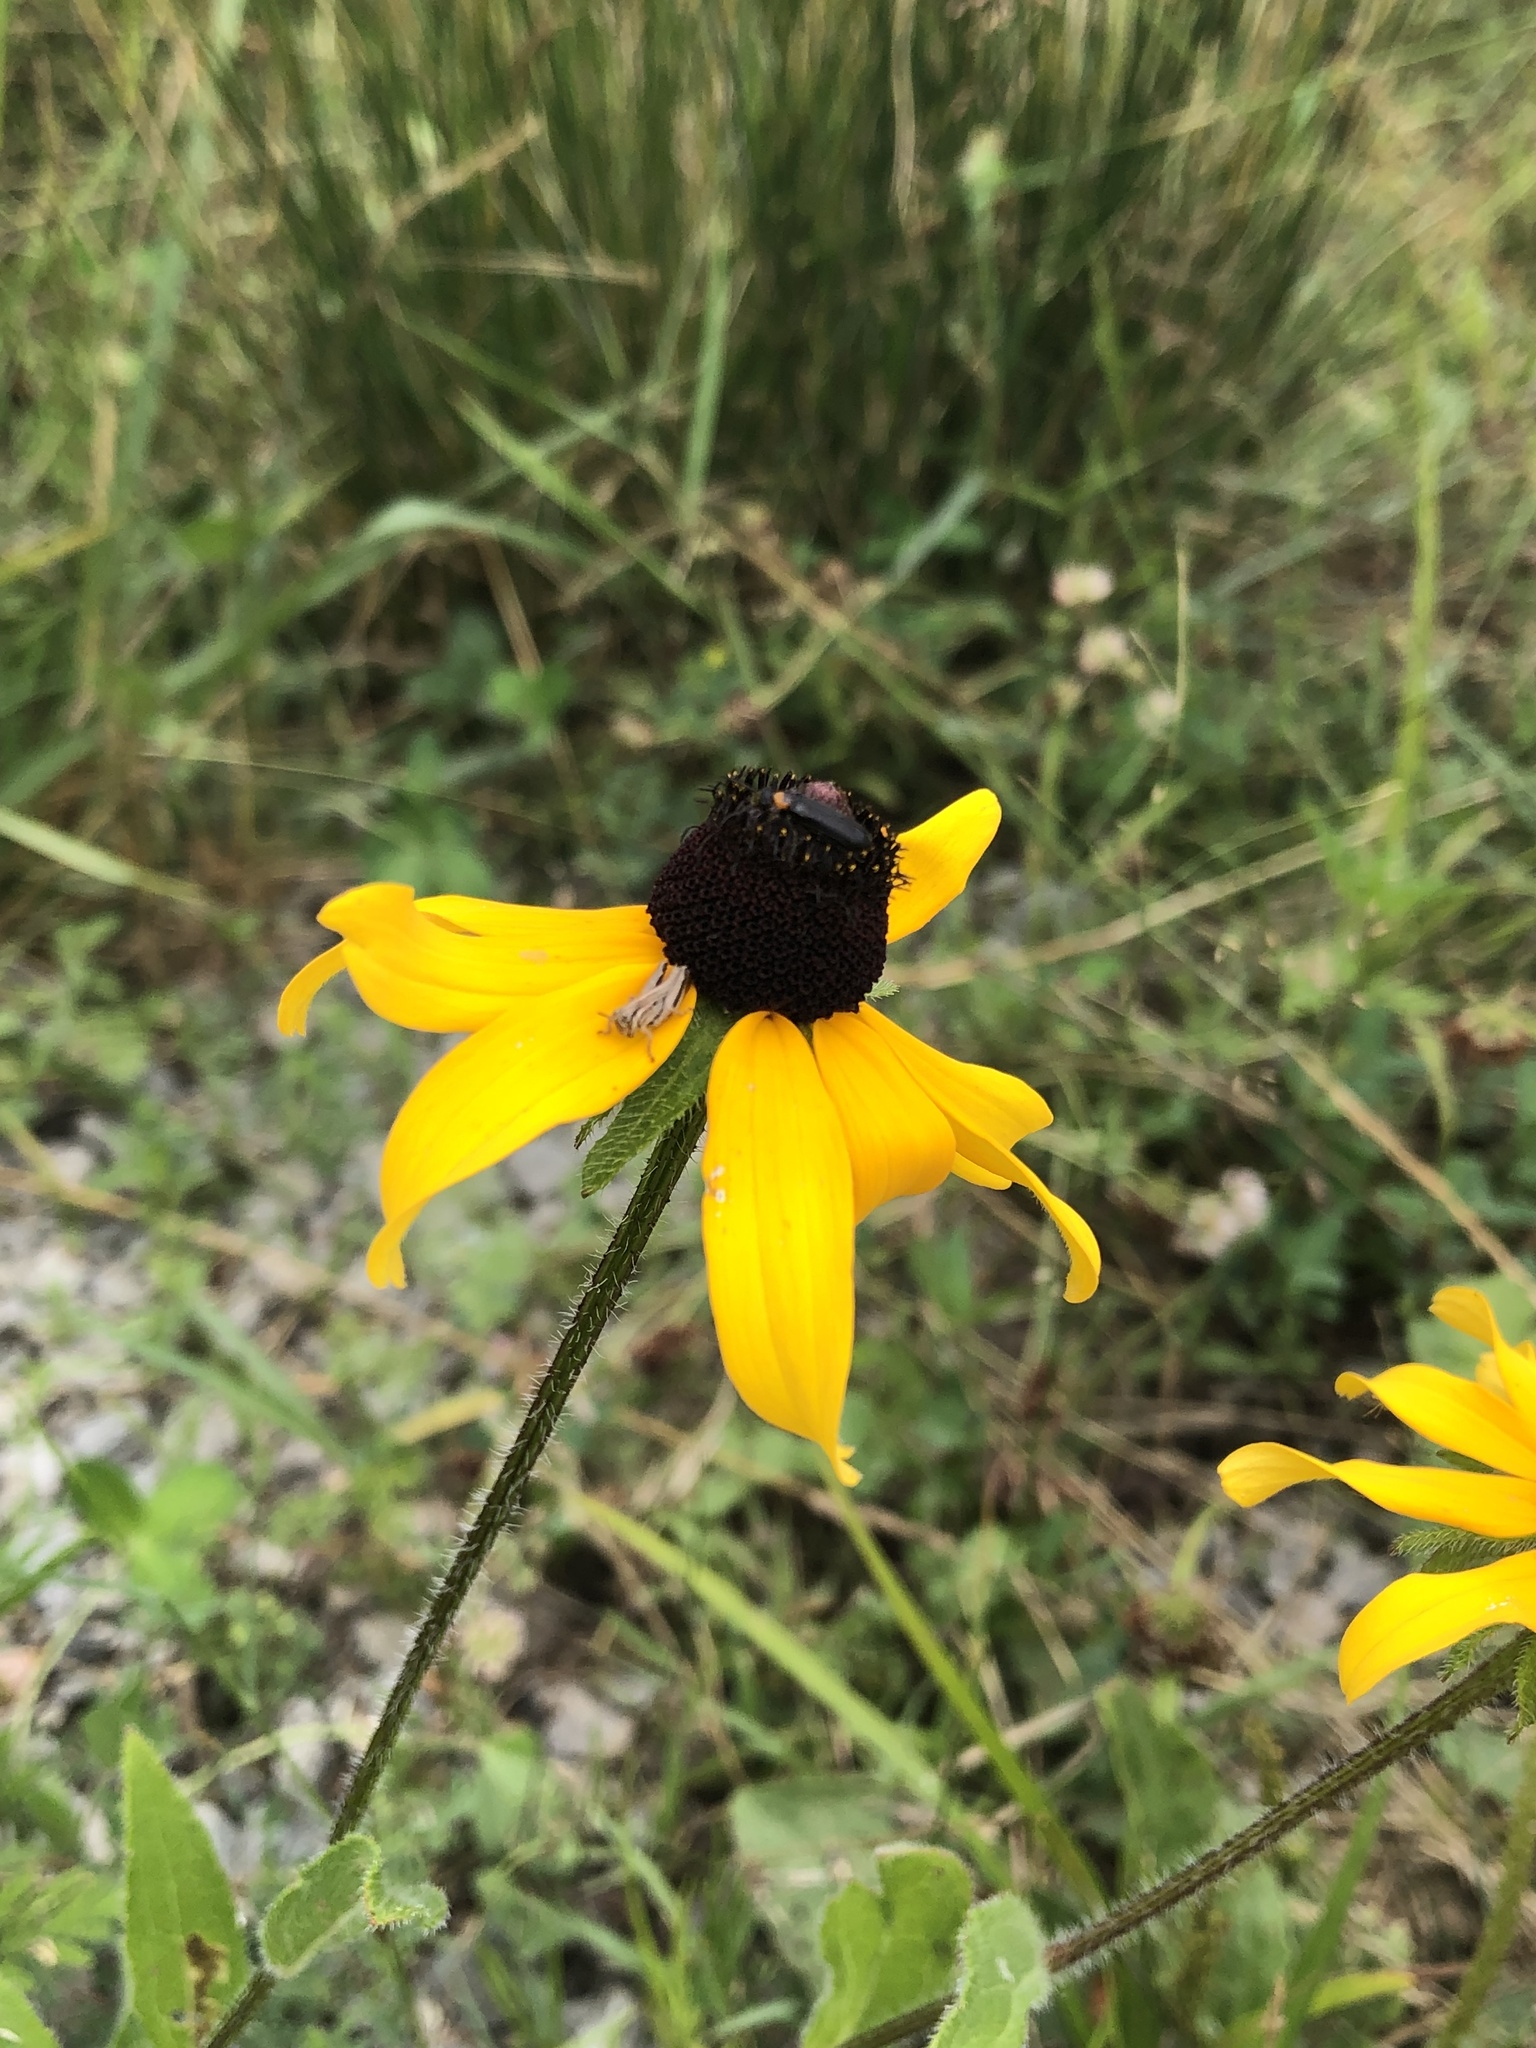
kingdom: Plantae
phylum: Tracheophyta
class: Magnoliopsida
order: Asterales
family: Asteraceae
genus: Rudbeckia
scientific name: Rudbeckia hirta
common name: Black-eyed-susan
